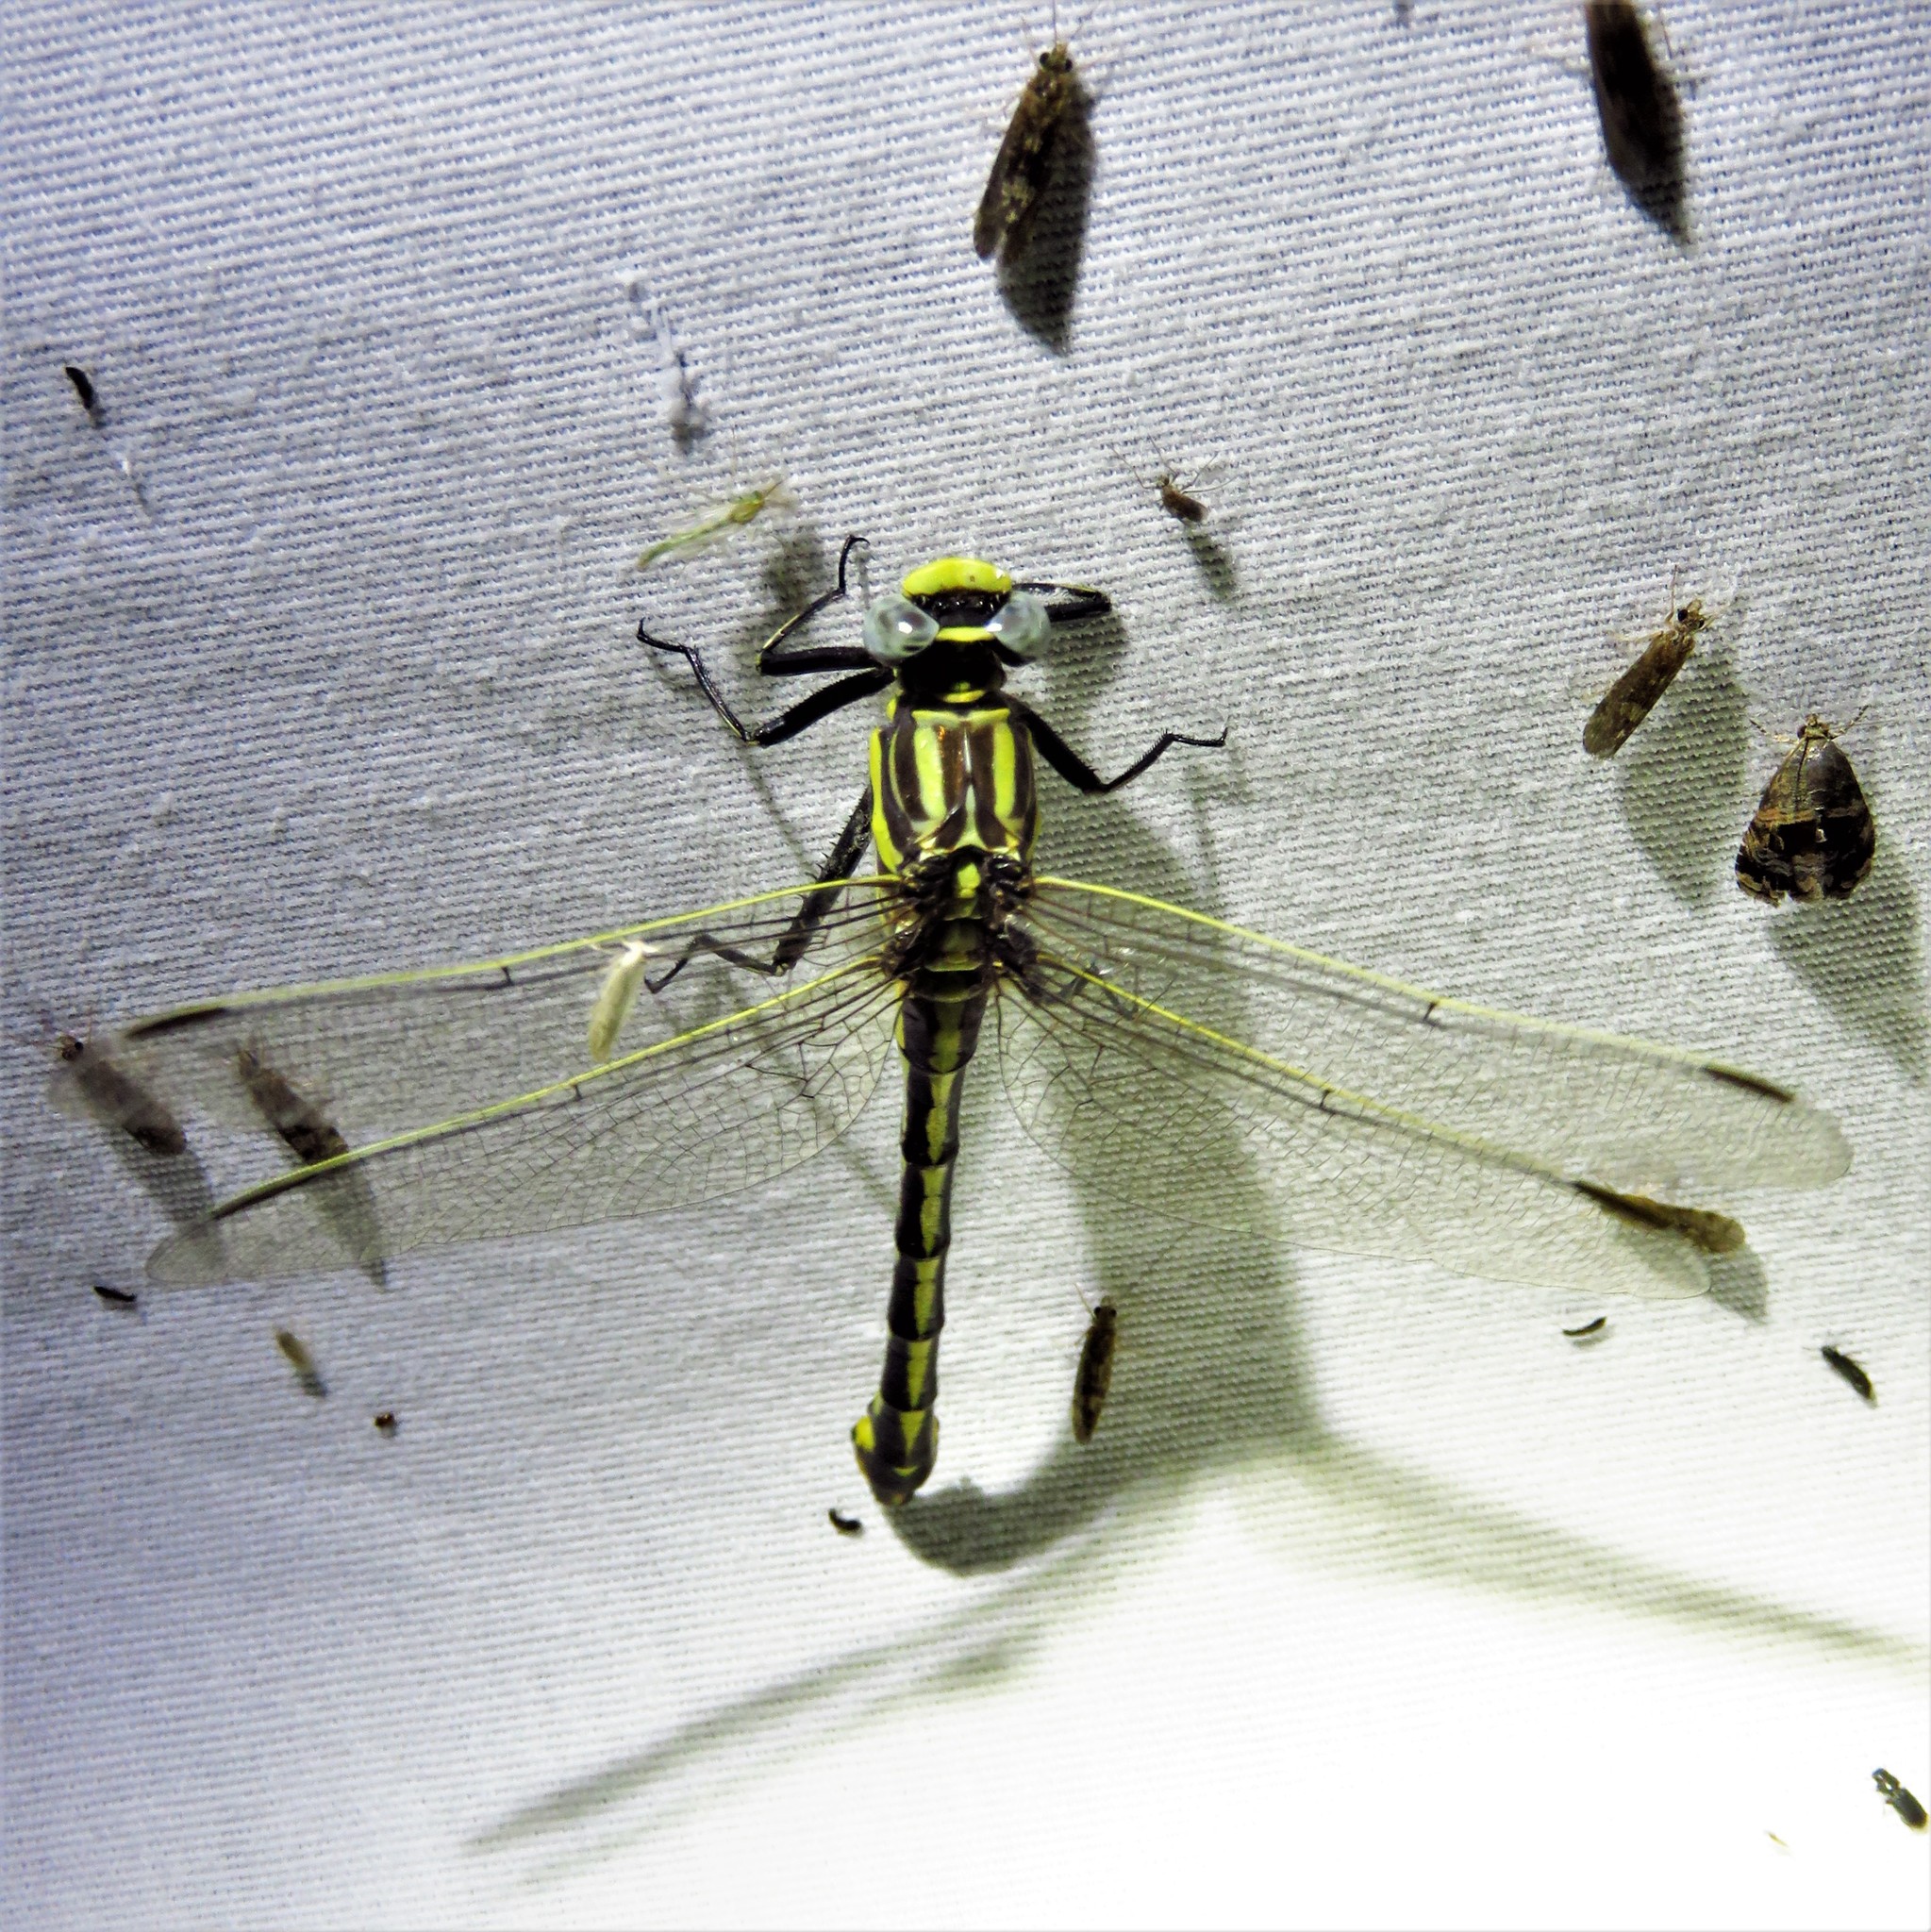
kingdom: Animalia
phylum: Arthropoda
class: Insecta
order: Odonata
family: Gomphidae
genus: Gomphurus
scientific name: Gomphurus externus
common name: Plains clubtail
